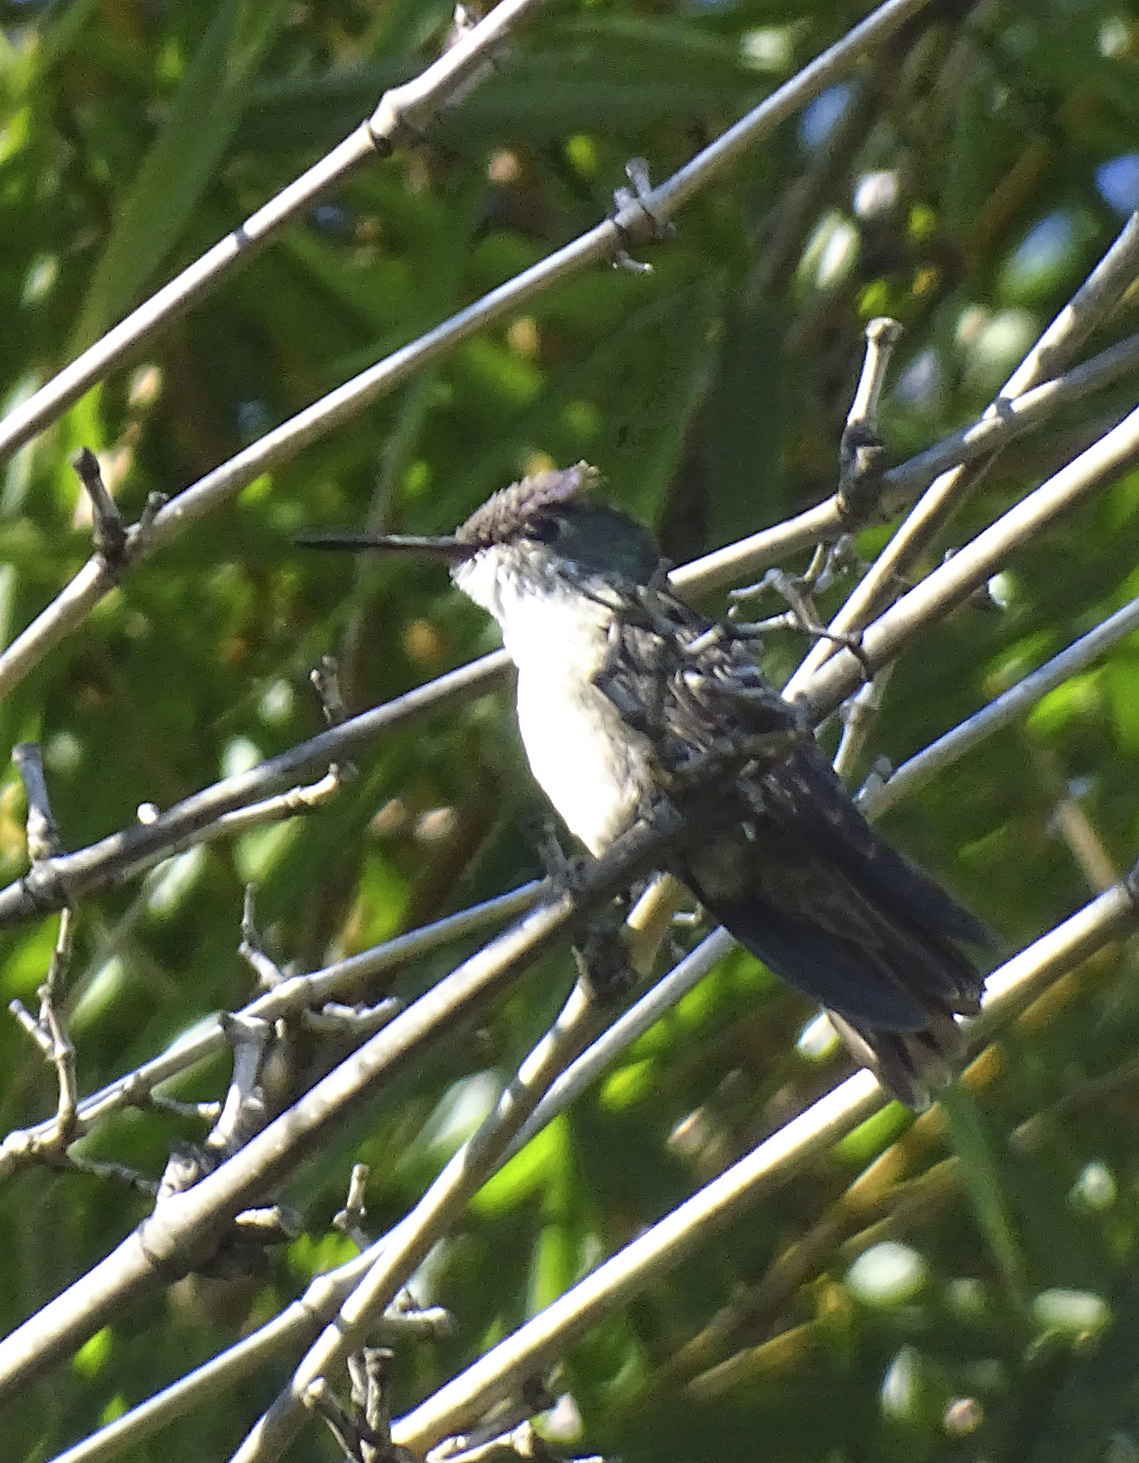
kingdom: Animalia
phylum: Chordata
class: Aves
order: Apodiformes
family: Trochilidae
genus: Saucerottia
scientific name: Saucerottia cyanocephala
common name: Azure-crowned hummingbird
